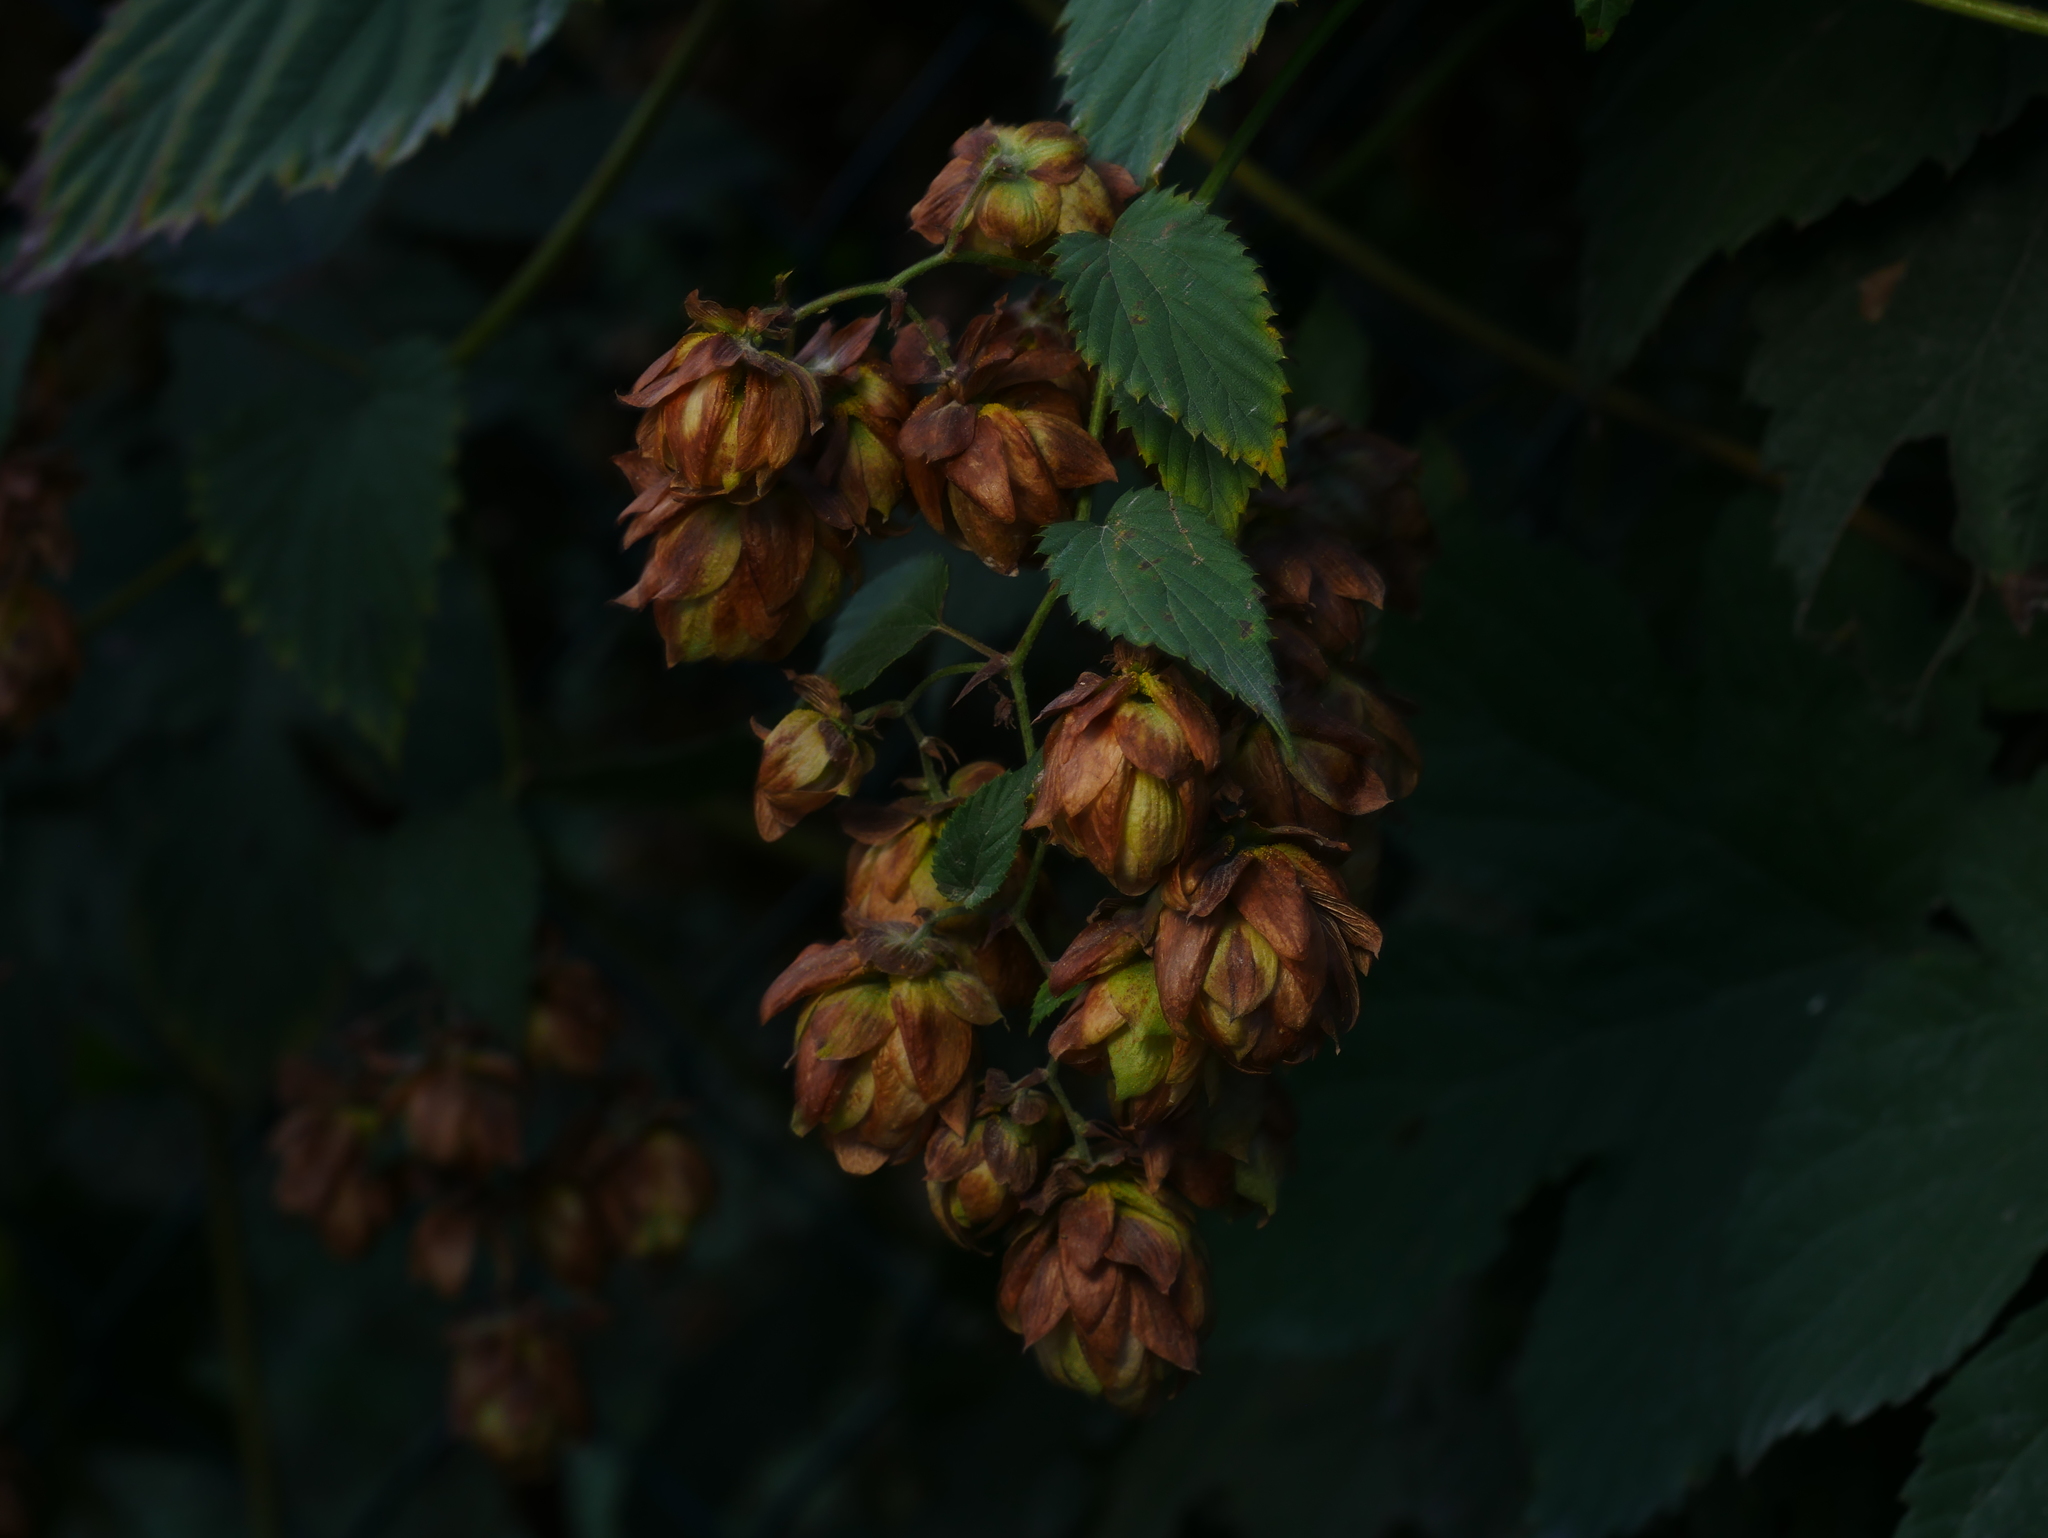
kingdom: Plantae
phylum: Tracheophyta
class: Magnoliopsida
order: Rosales
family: Cannabaceae
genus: Humulus
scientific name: Humulus lupulus
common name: Hop
